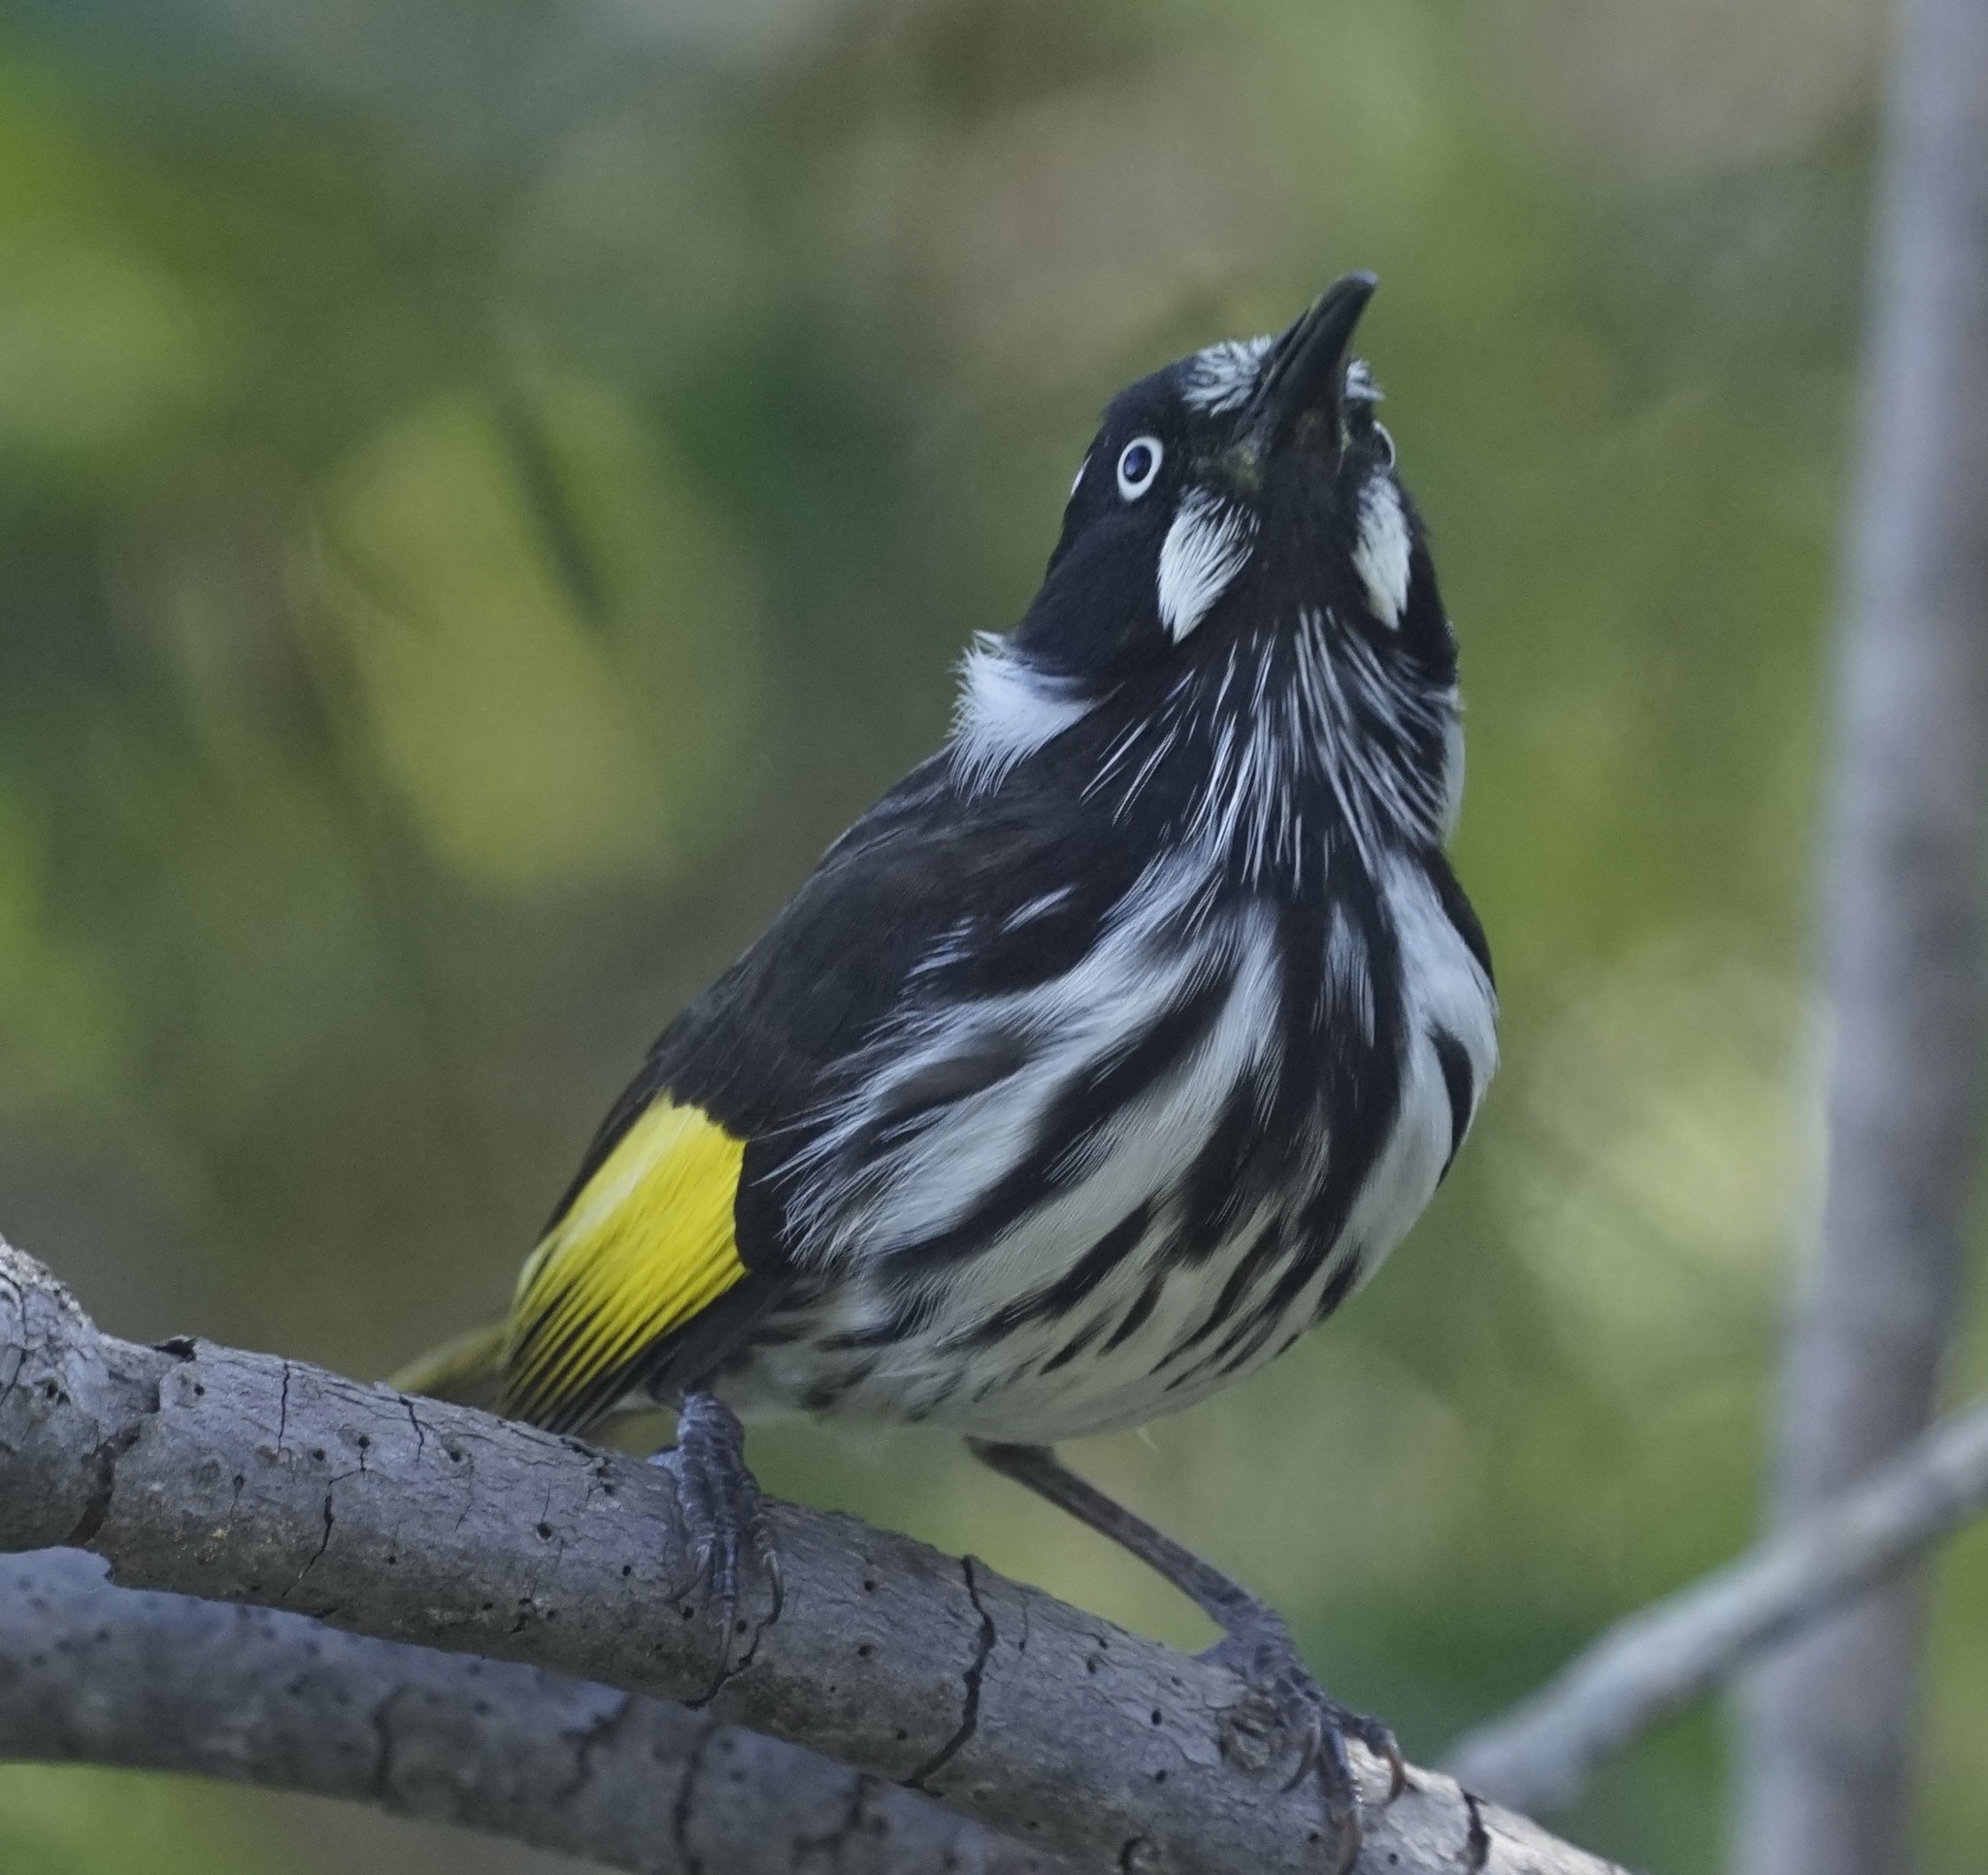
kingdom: Animalia
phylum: Chordata
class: Aves
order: Passeriformes
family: Meliphagidae
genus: Phylidonyris
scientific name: Phylidonyris novaehollandiae
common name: New holland honeyeater
